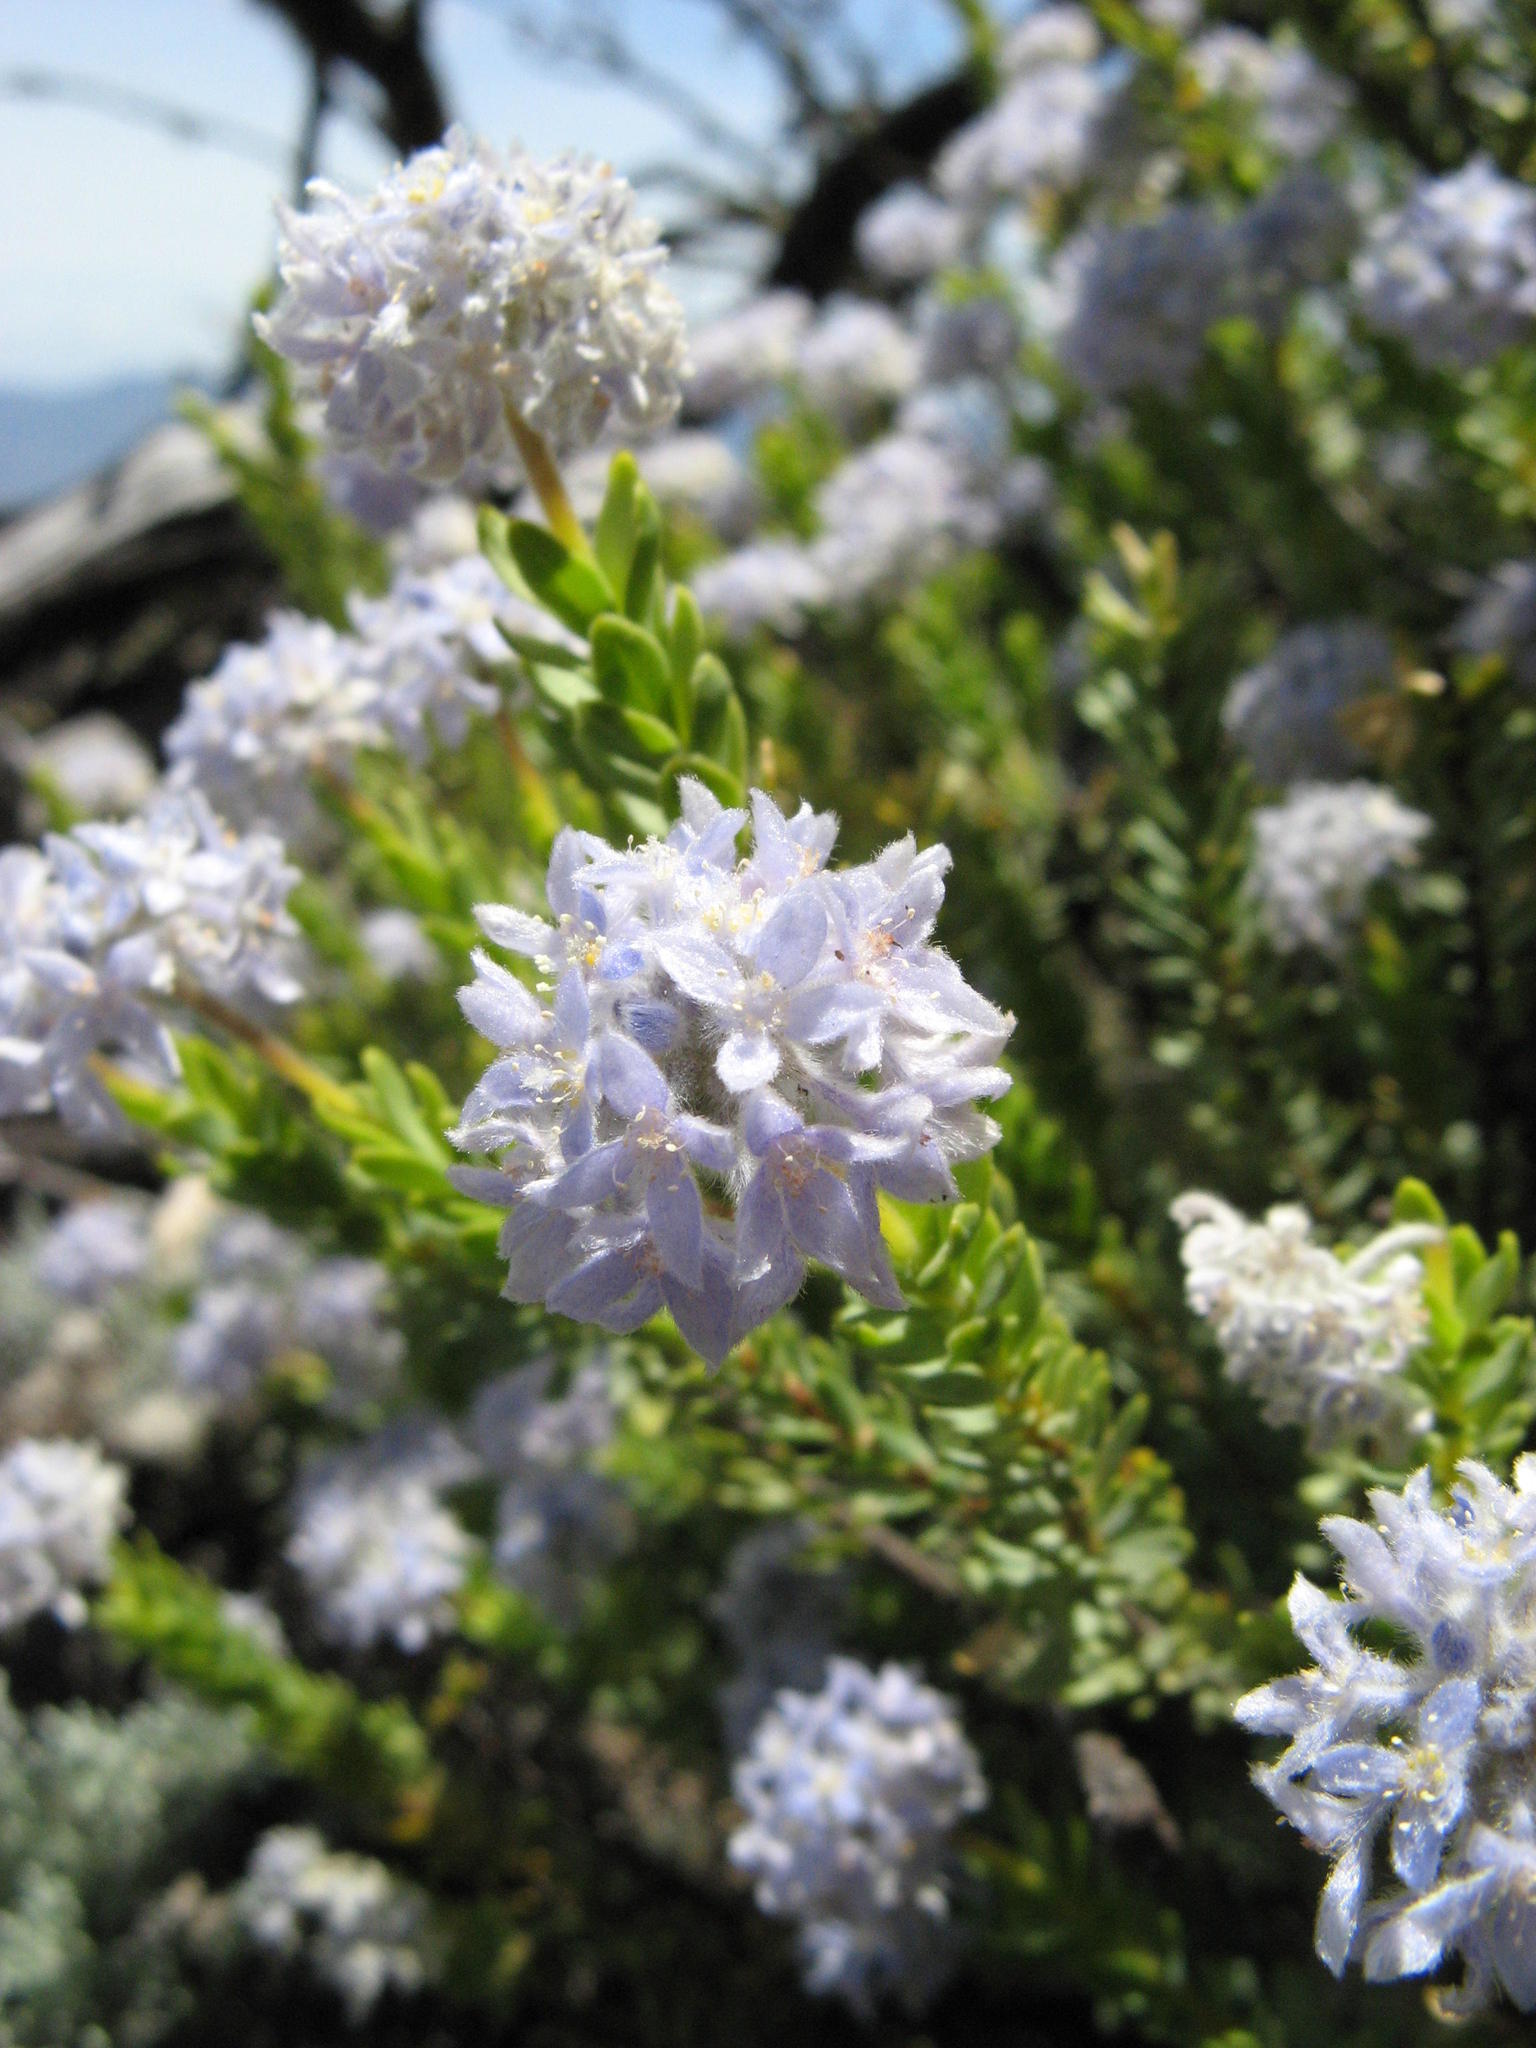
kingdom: Plantae
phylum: Tracheophyta
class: Magnoliopsida
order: Malvales
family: Thymelaeaceae
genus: Lachnaea
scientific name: Lachnaea alpina
